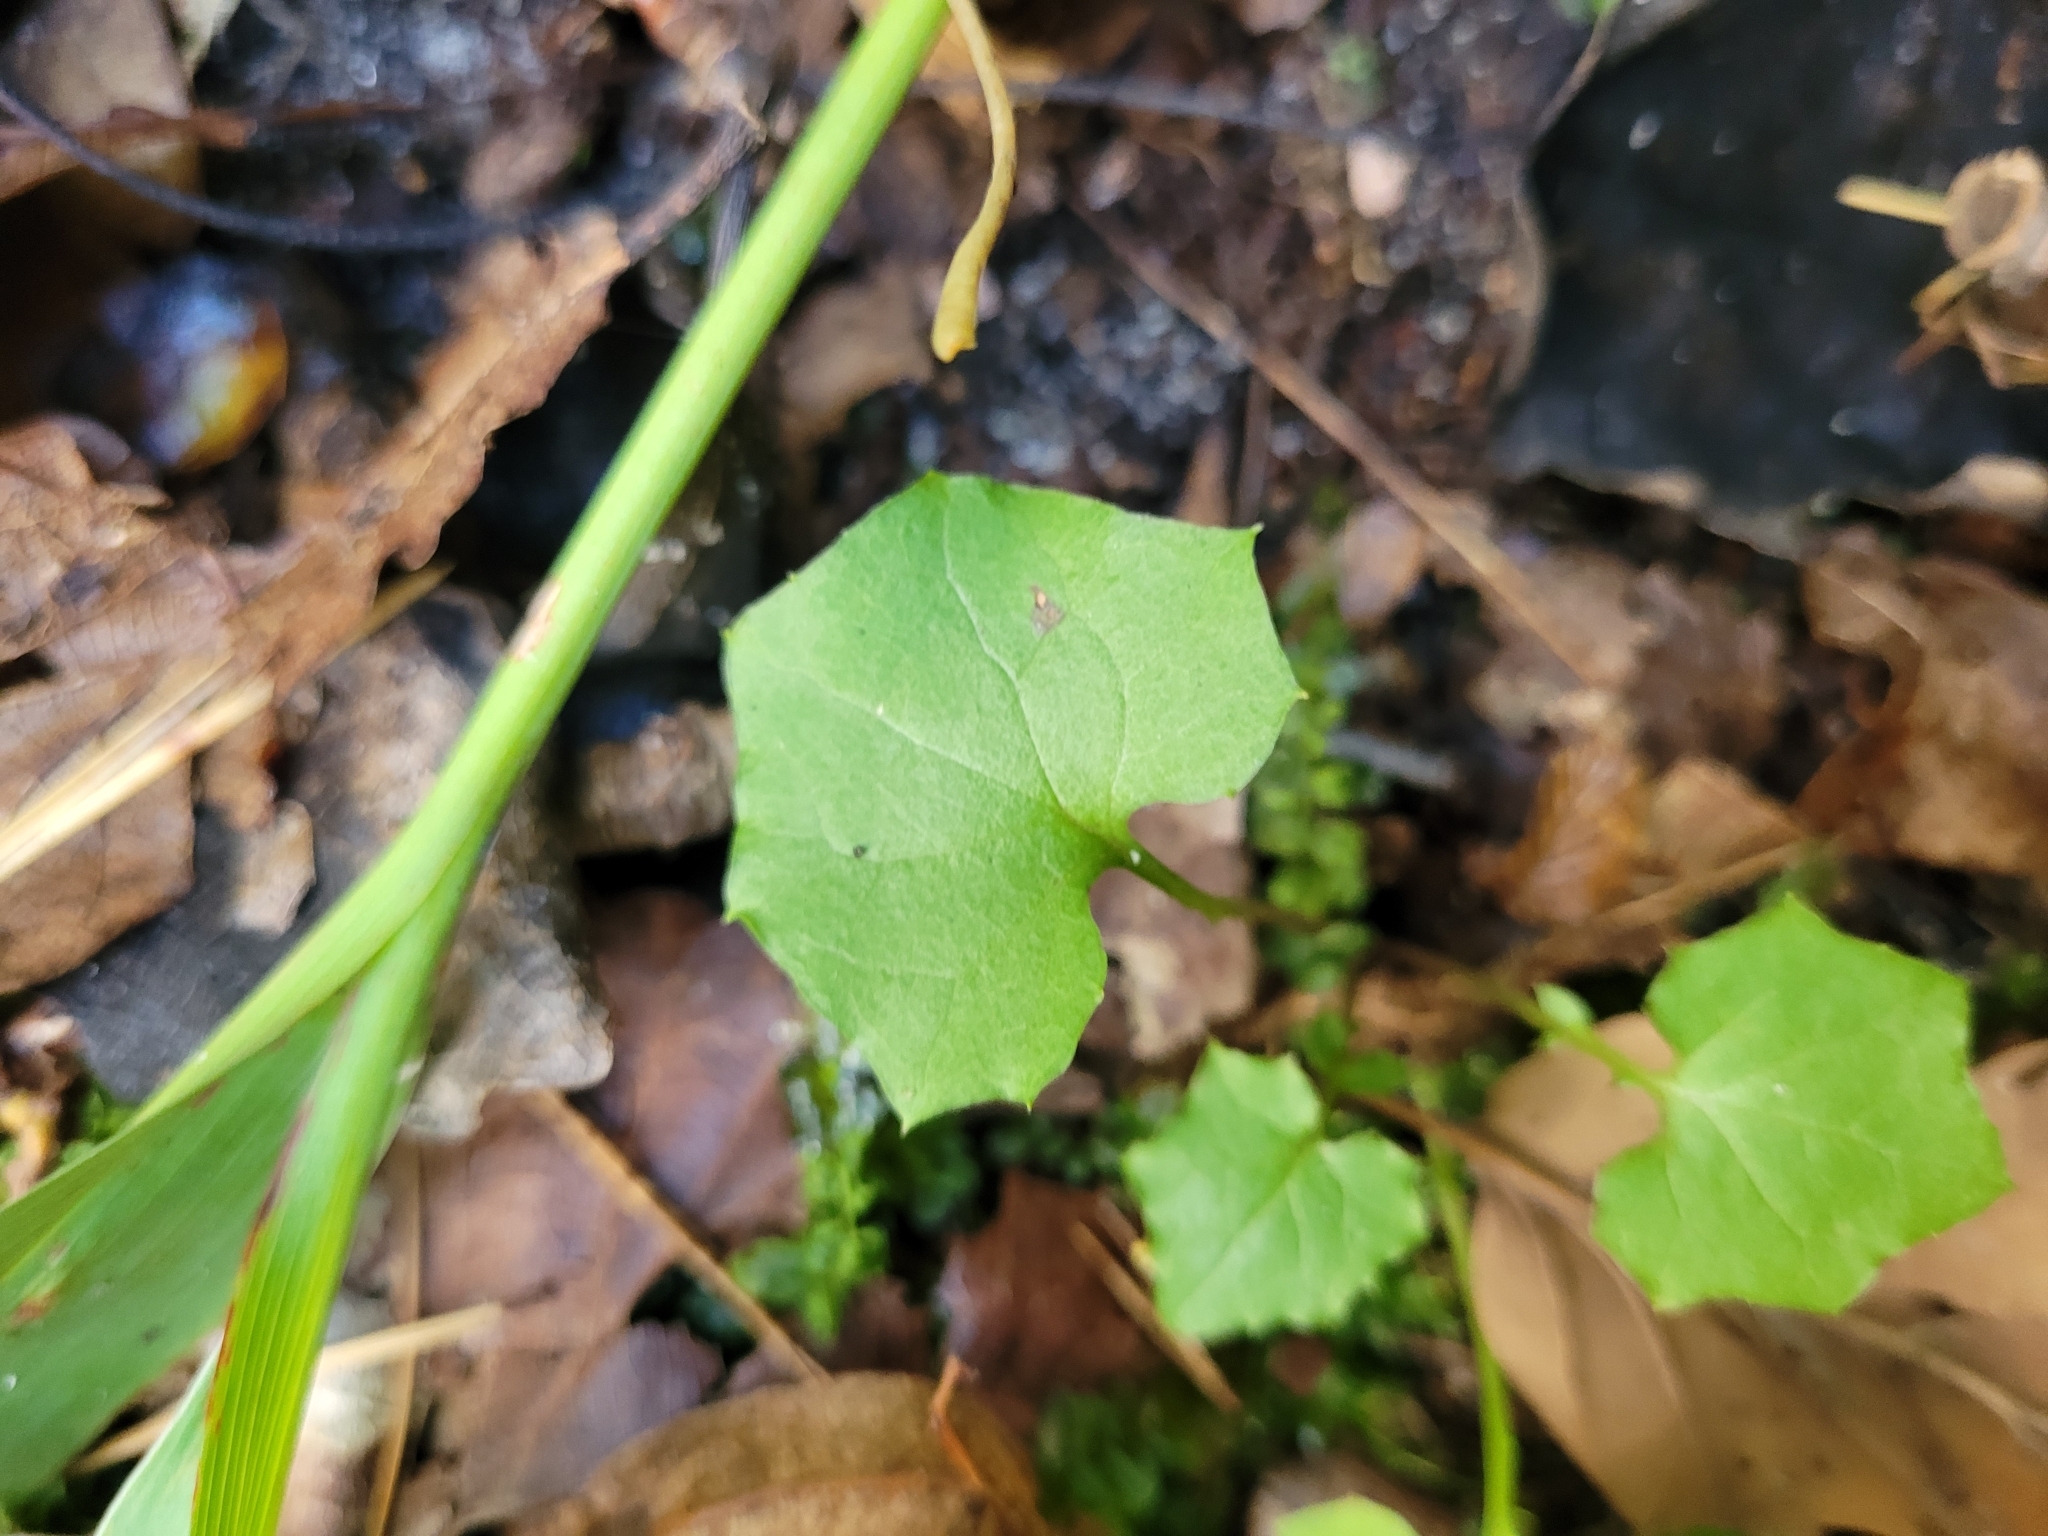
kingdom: Plantae
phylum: Tracheophyta
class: Magnoliopsida
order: Asterales
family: Asteraceae
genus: Mycelis
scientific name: Mycelis muralis
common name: Wall lettuce
